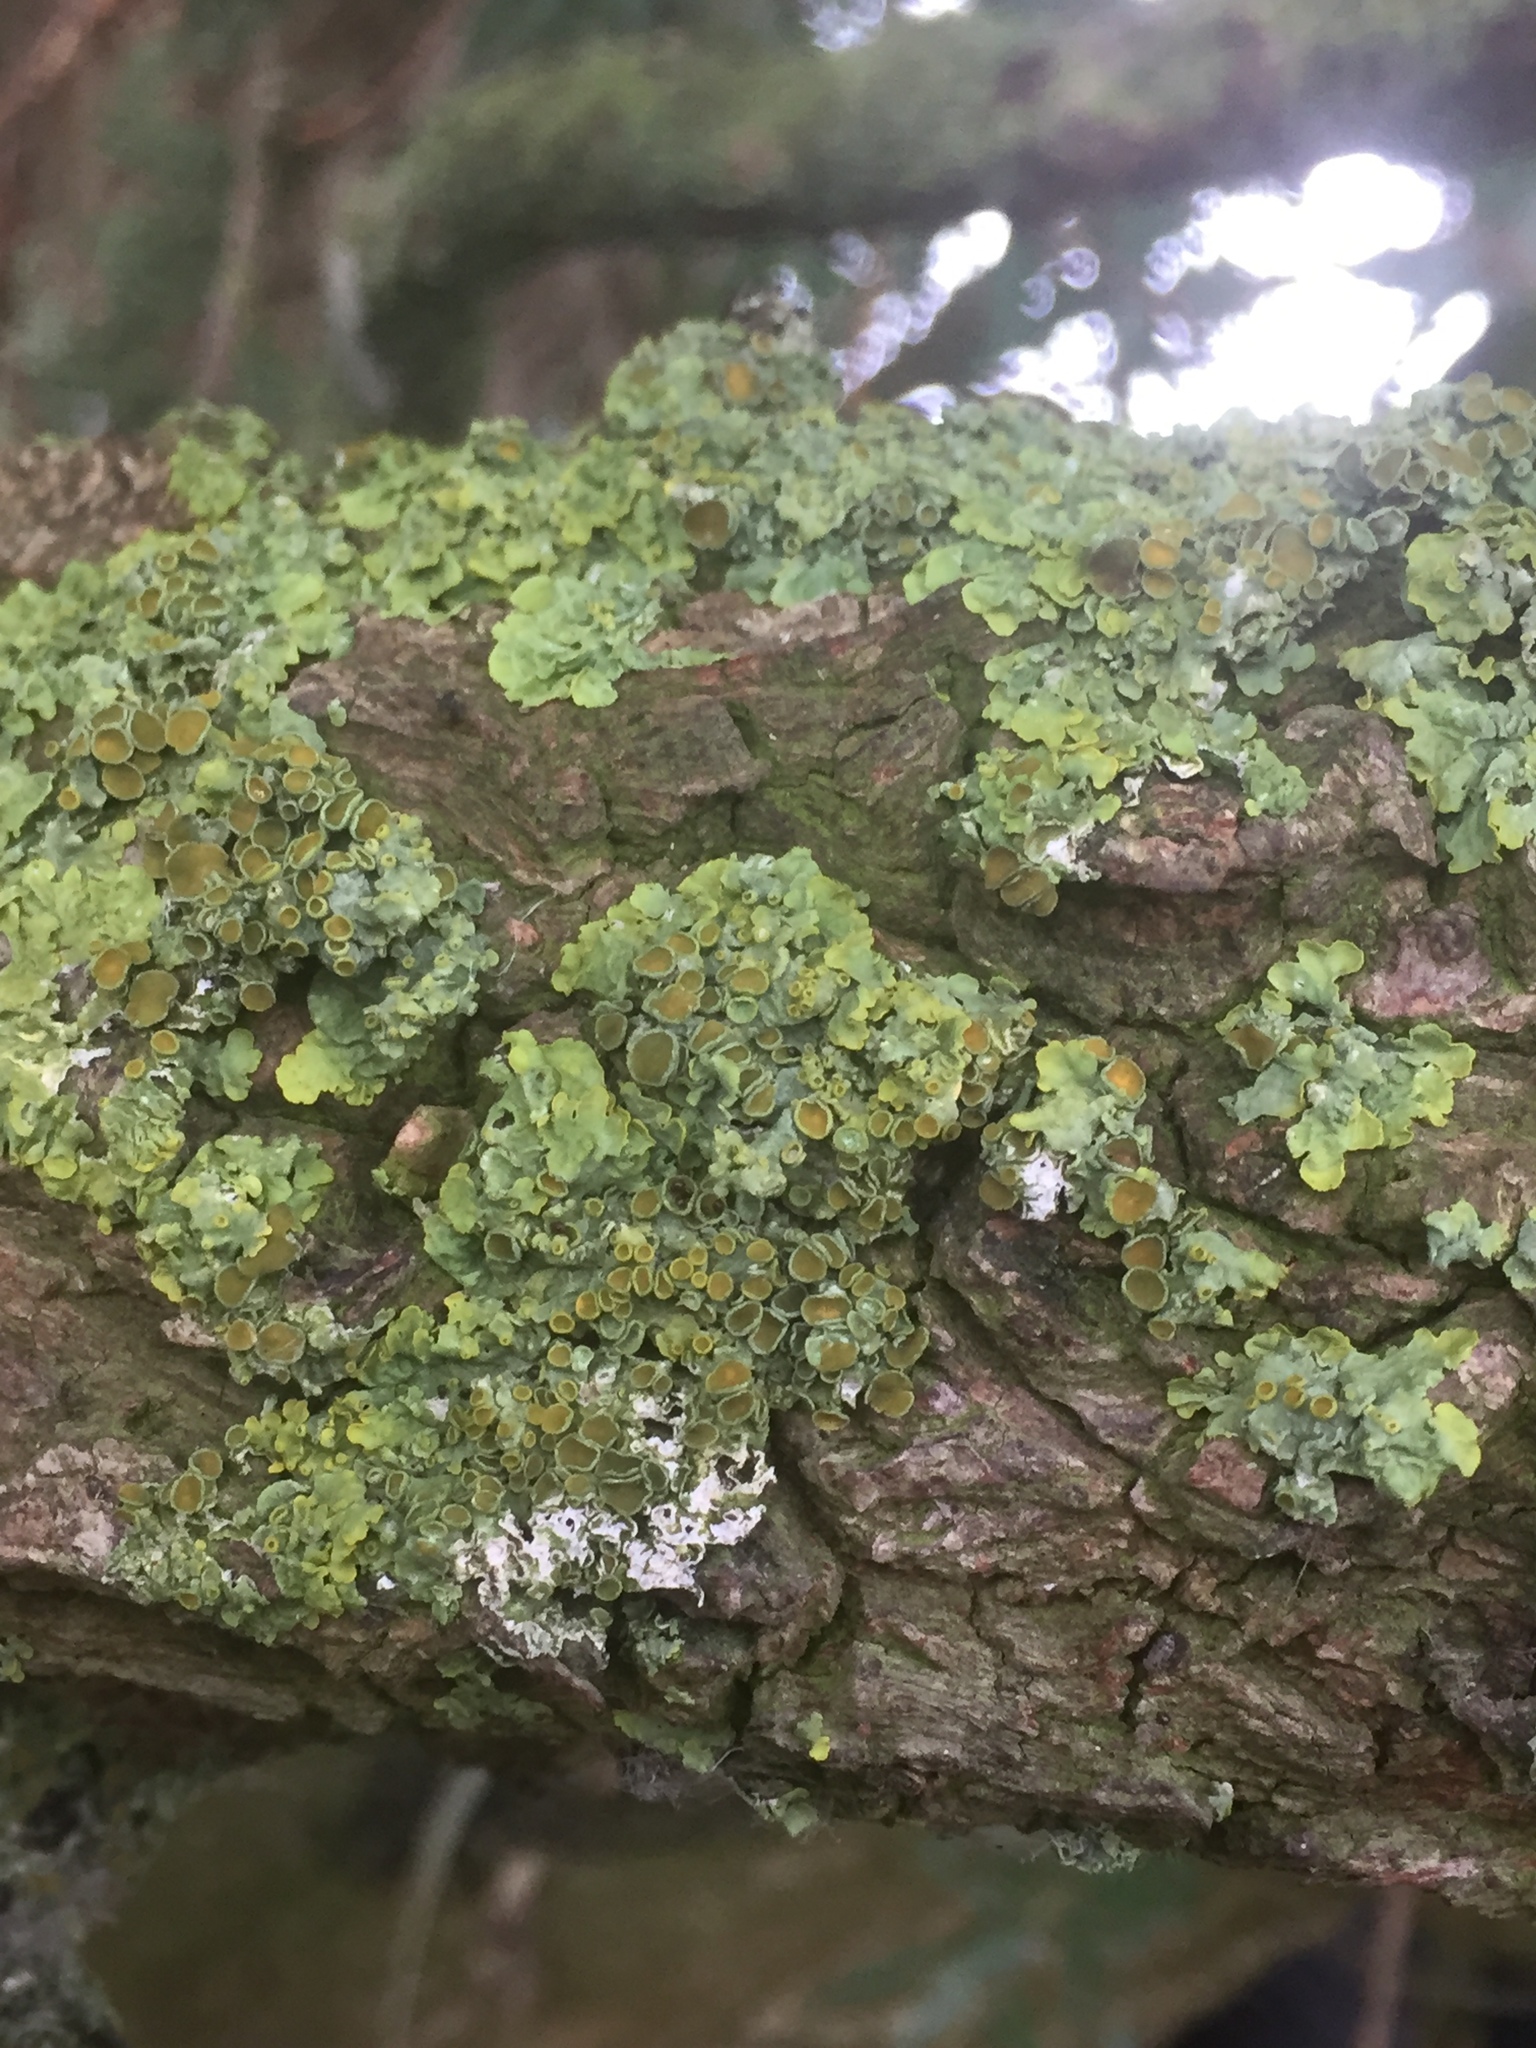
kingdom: Fungi
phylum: Ascomycota
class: Lecanoromycetes
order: Teloschistales
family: Teloschistaceae
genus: Xanthoria
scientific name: Xanthoria parietina
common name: Common orange lichen
